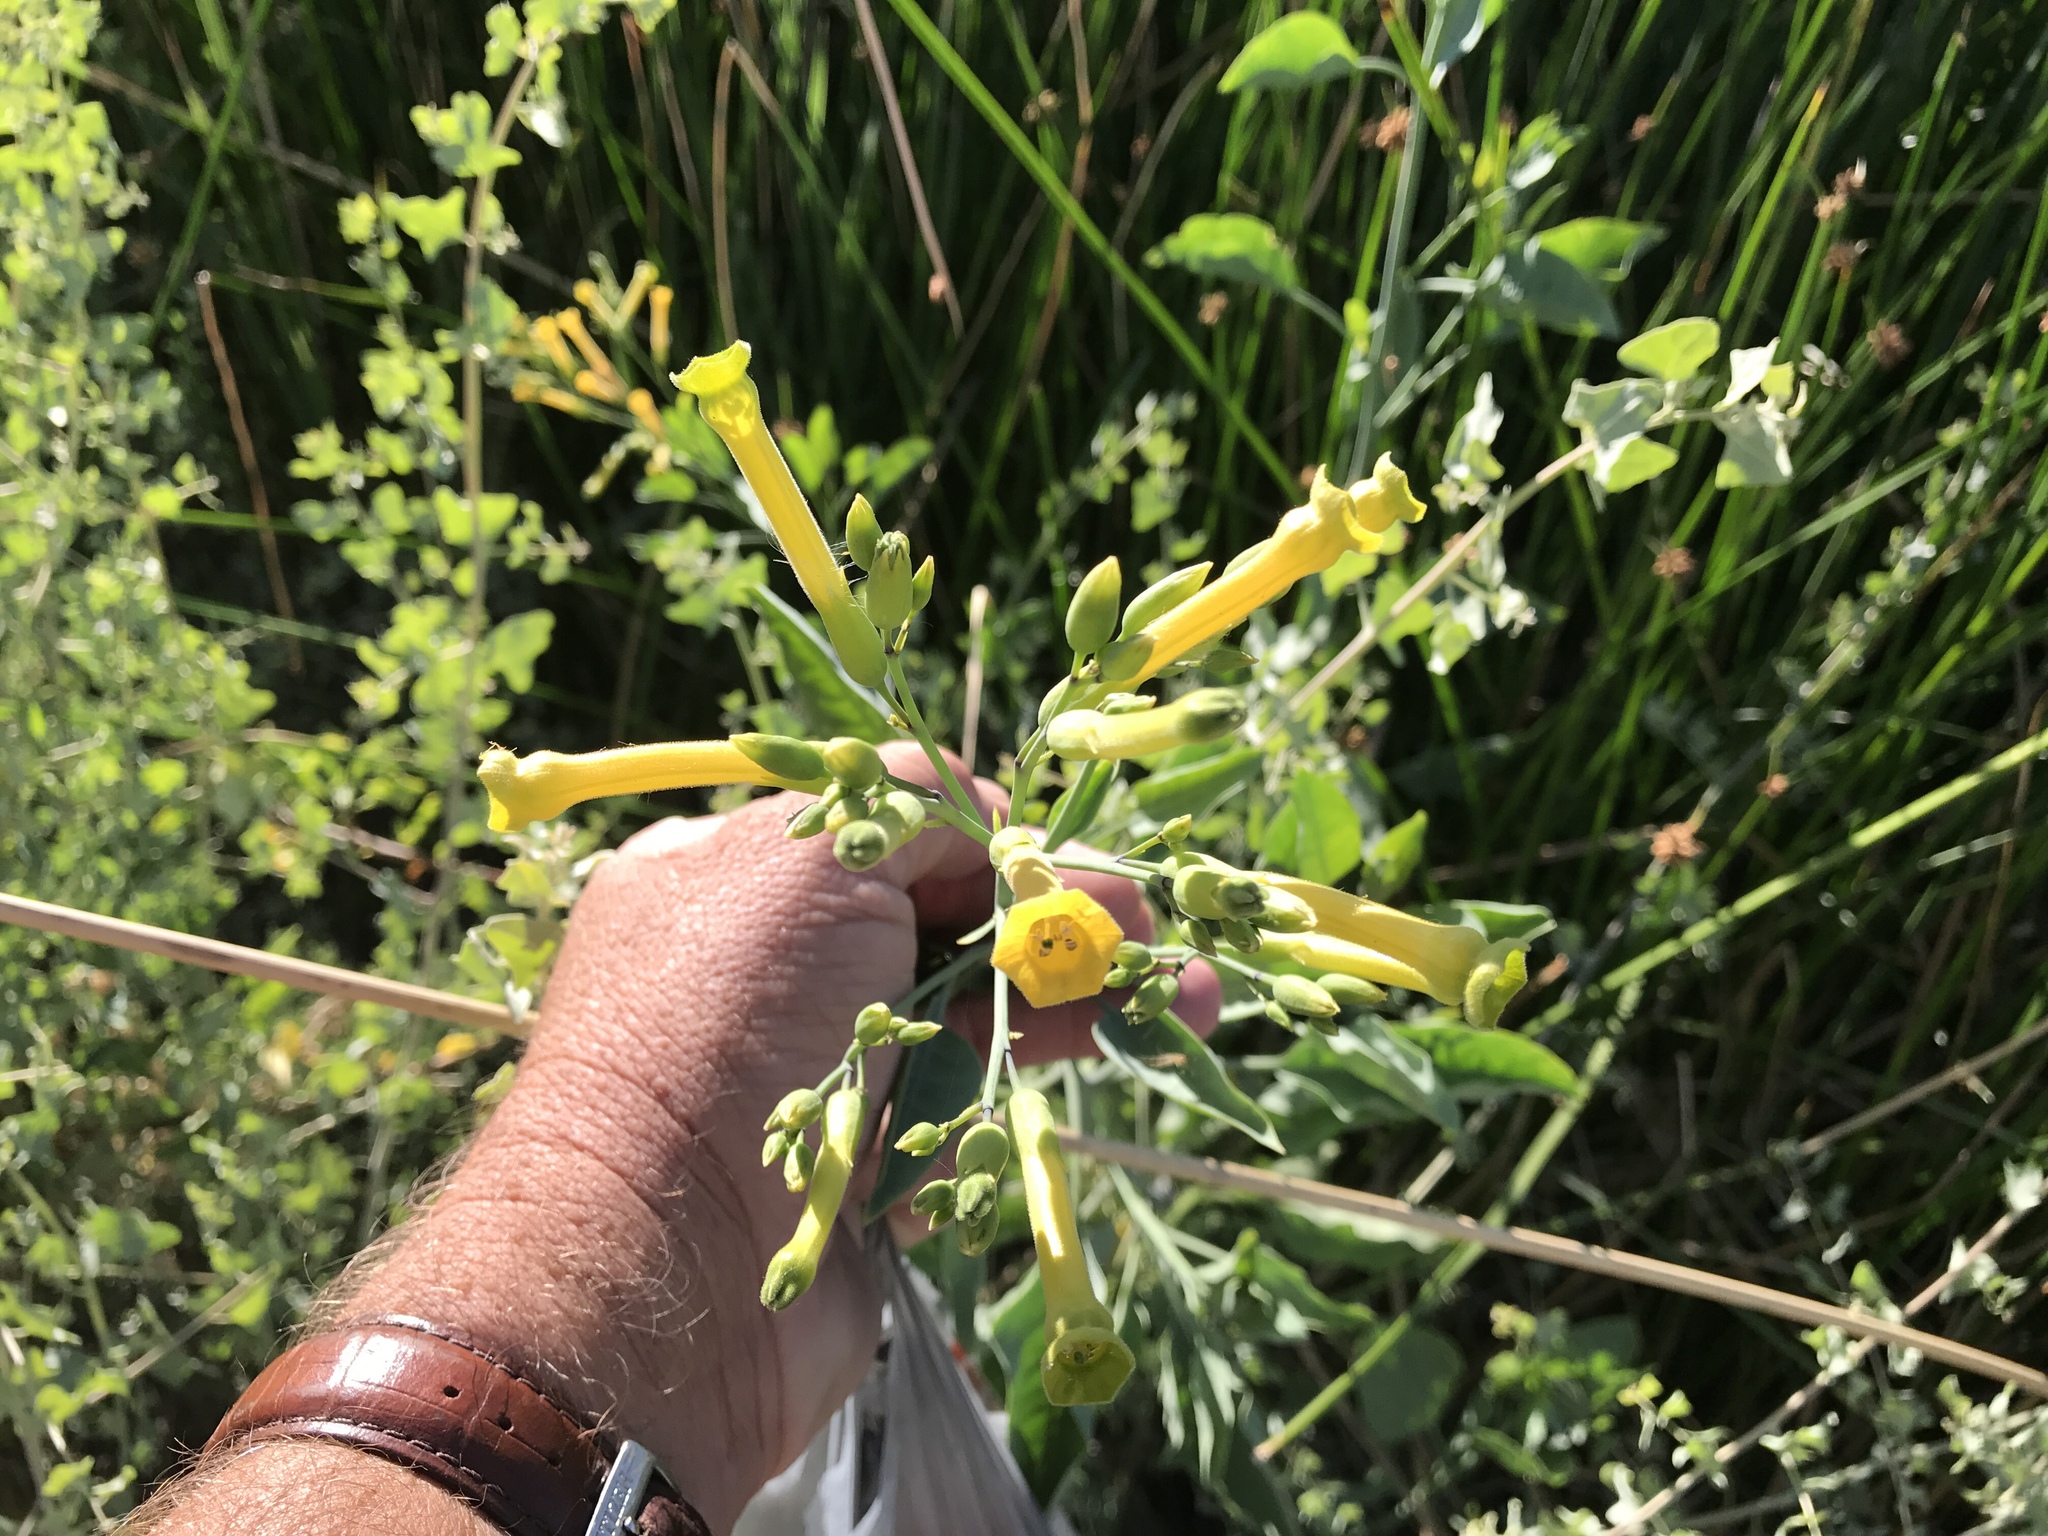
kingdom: Plantae
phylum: Tracheophyta
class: Magnoliopsida
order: Solanales
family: Solanaceae
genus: Nicotiana
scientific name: Nicotiana glauca
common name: Tree tobacco
